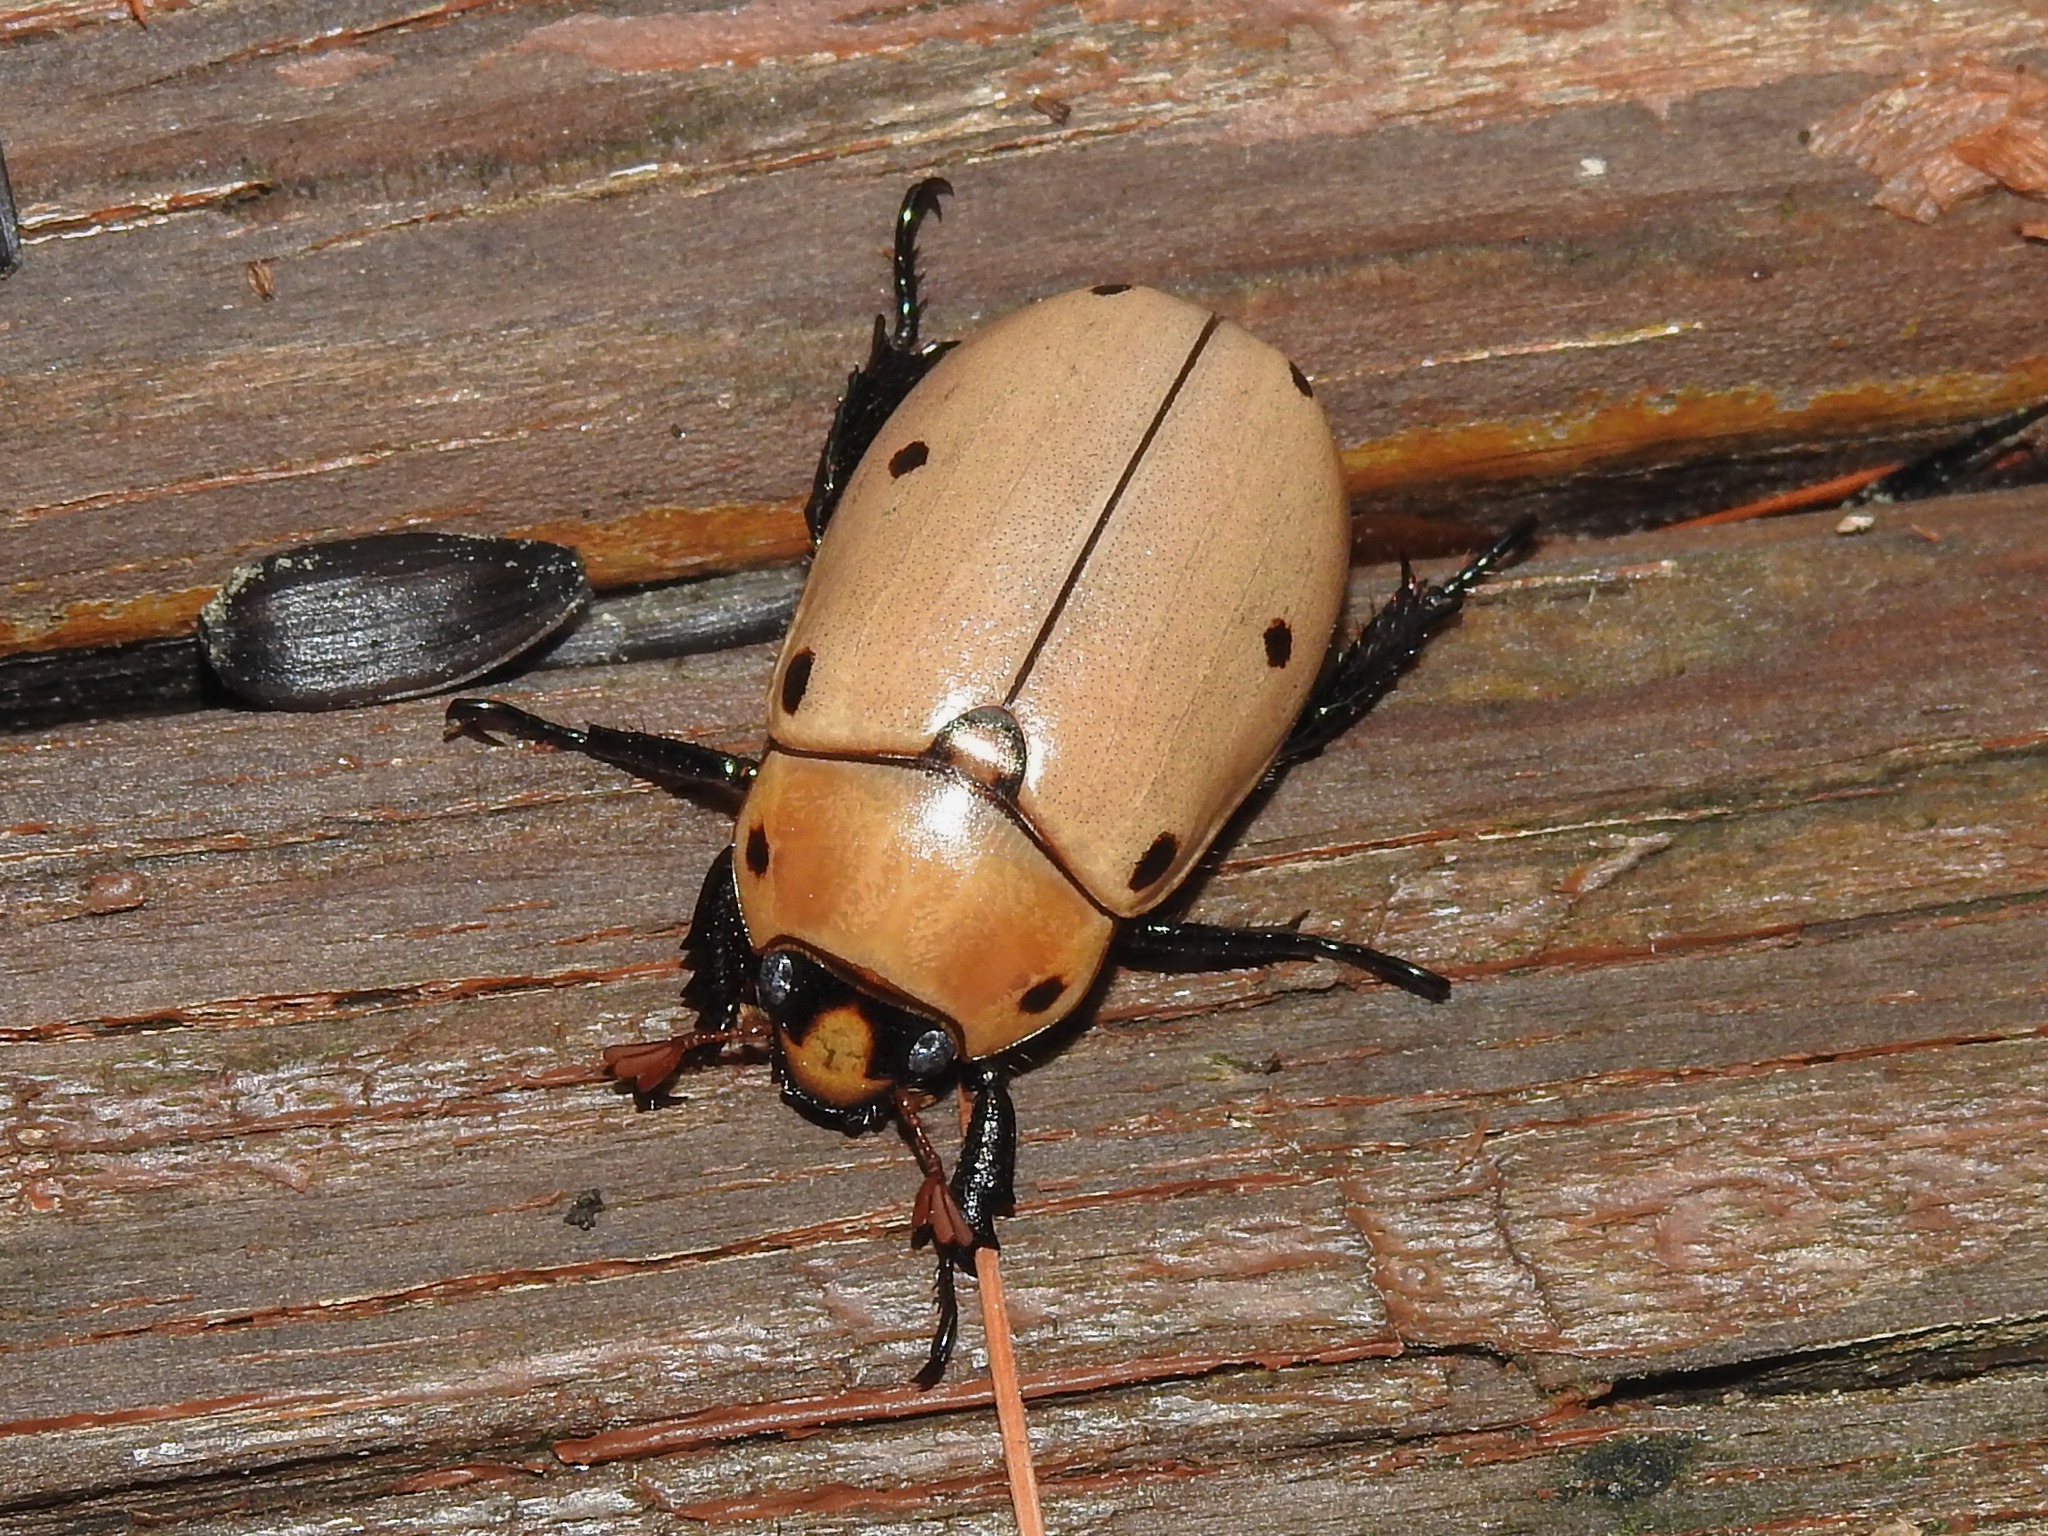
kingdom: Animalia
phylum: Arthropoda
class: Insecta
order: Coleoptera
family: Scarabaeidae
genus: Pelidnota
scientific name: Pelidnota punctata
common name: Grapevine beetle
